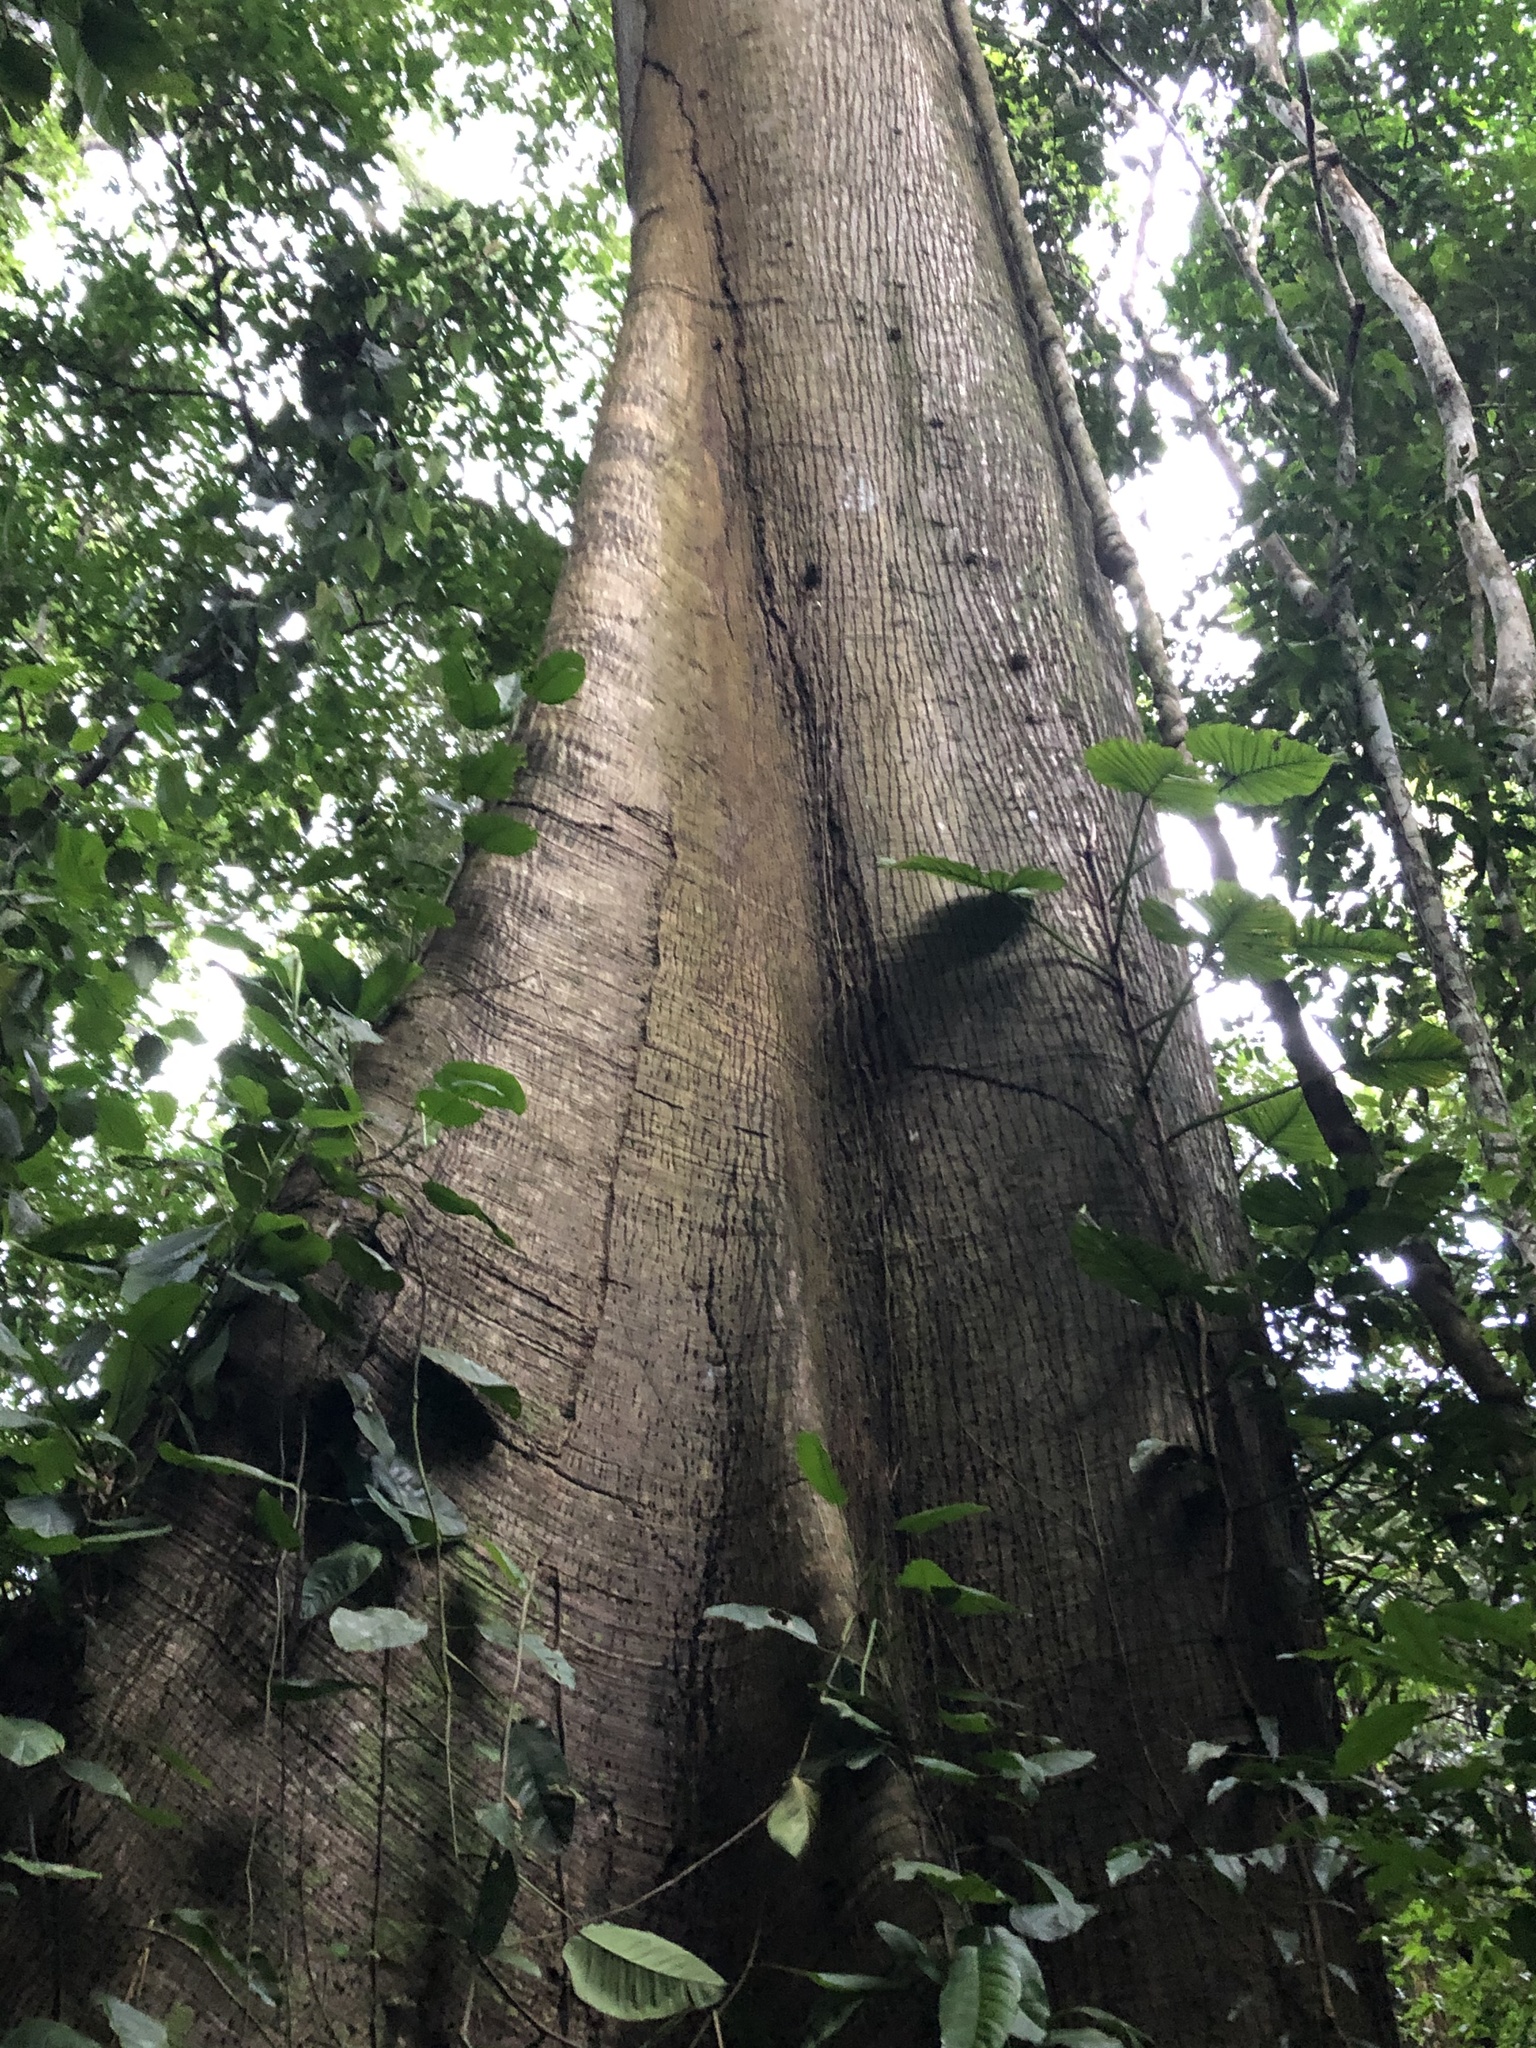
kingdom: Plantae
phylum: Tracheophyta
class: Magnoliopsida
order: Malvales
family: Malvaceae
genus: Ceiba
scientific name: Ceiba pentandra
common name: Kapok
